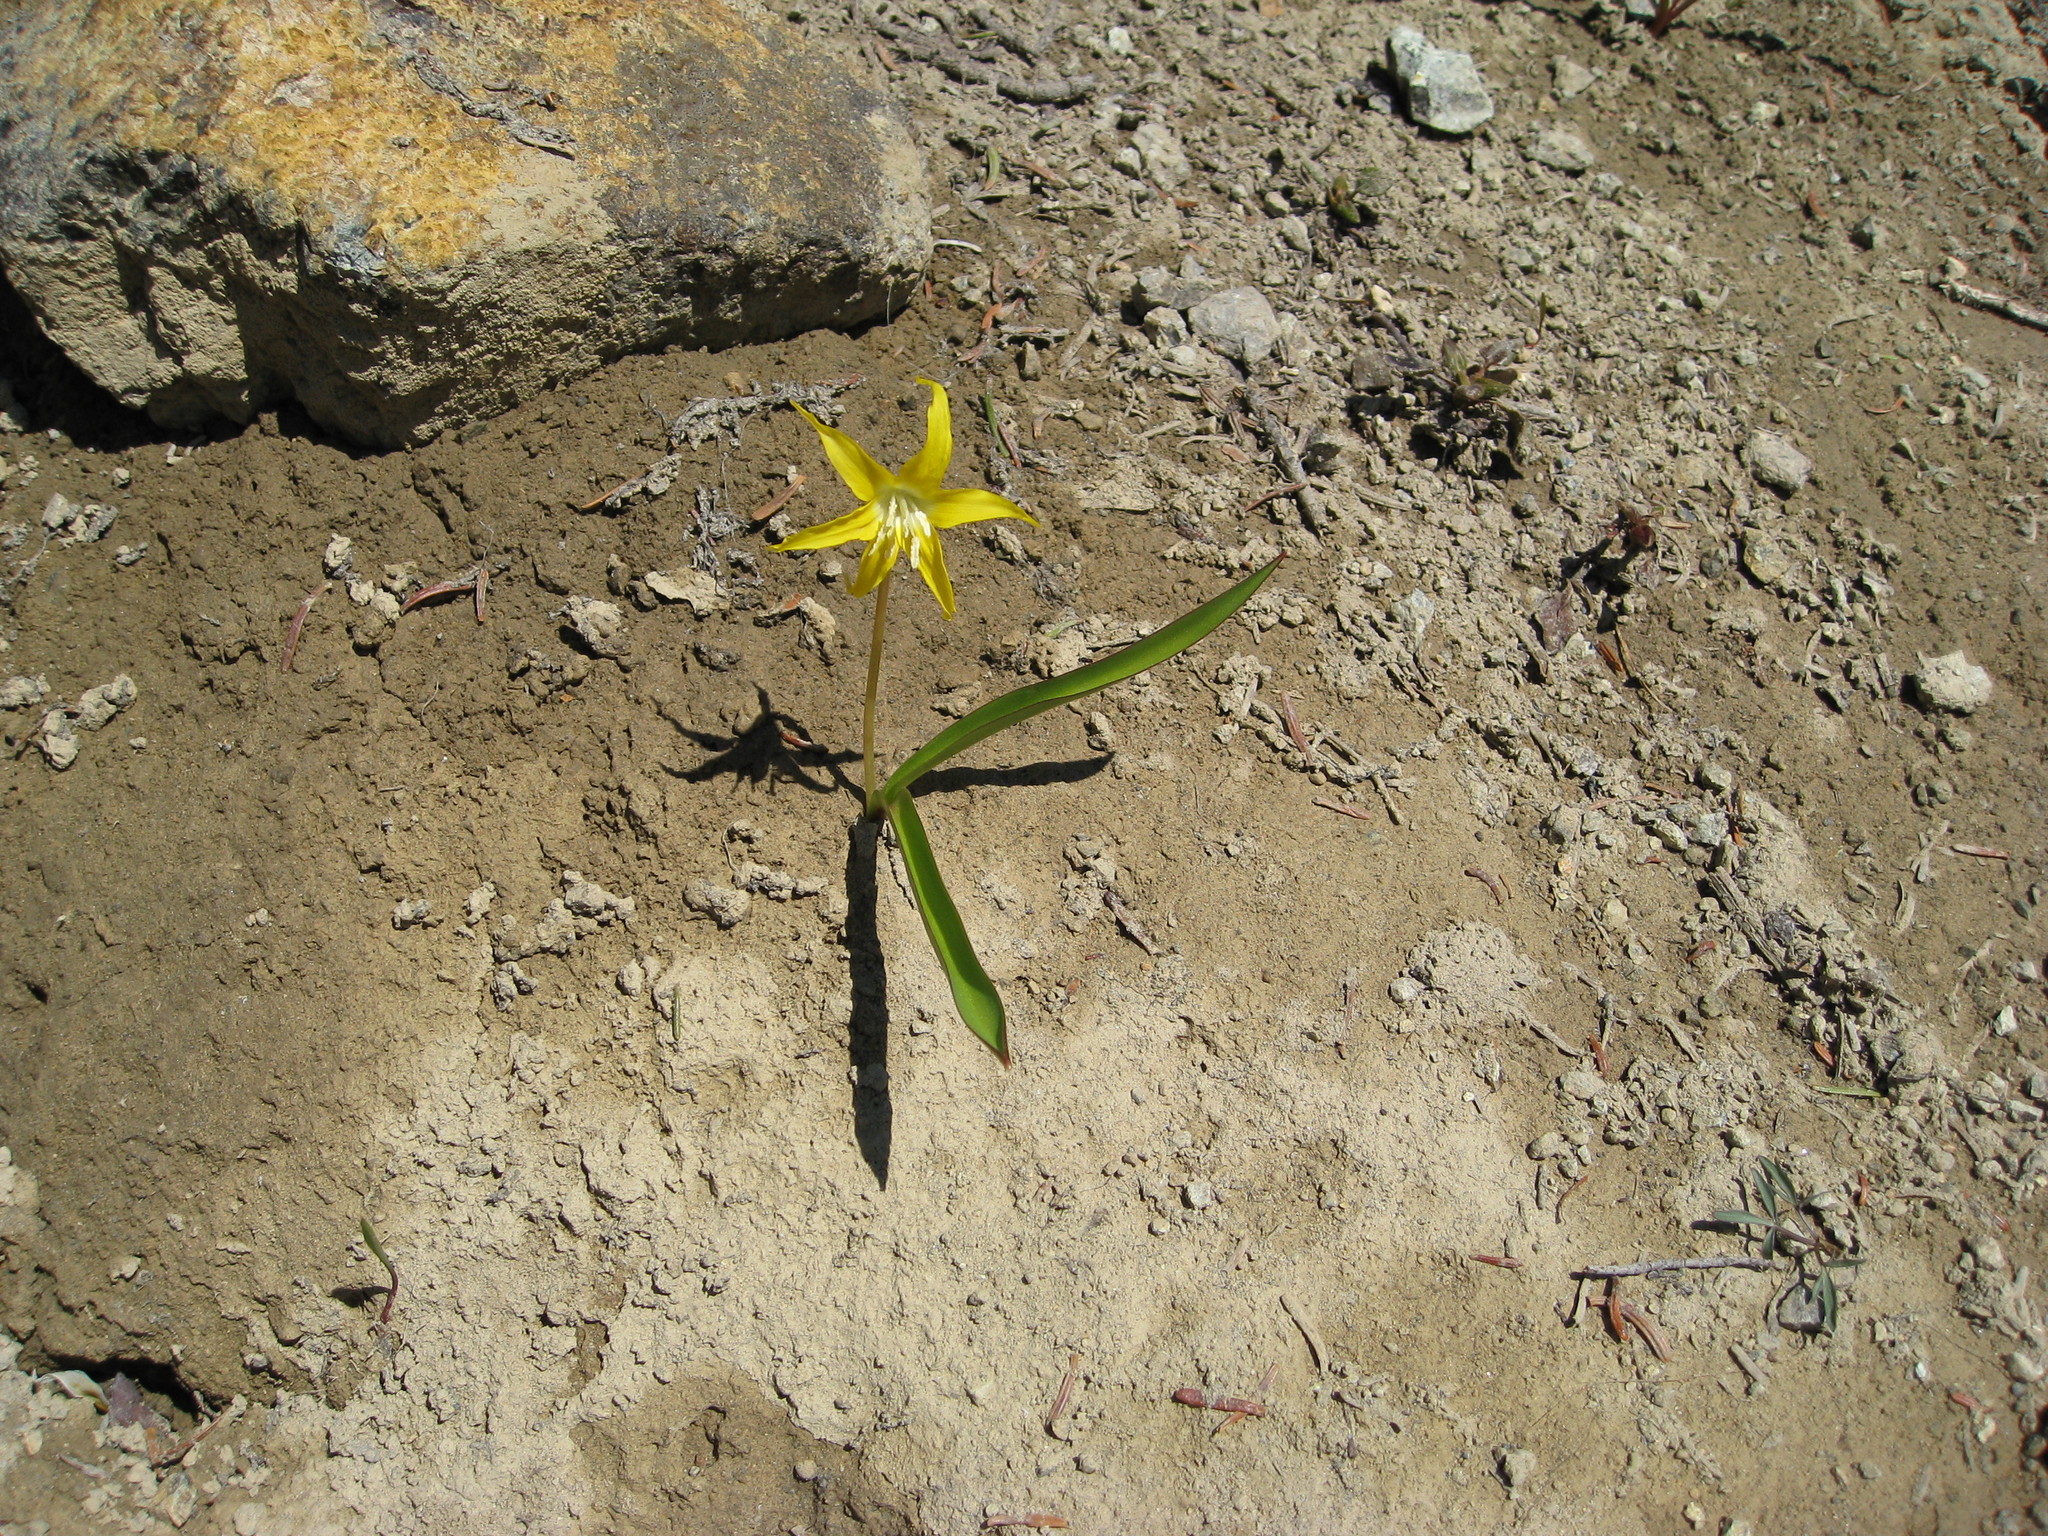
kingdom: Plantae
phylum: Tracheophyta
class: Liliopsida
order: Liliales
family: Liliaceae
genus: Erythronium
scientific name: Erythronium grandiflorum
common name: Avalanche-lily
